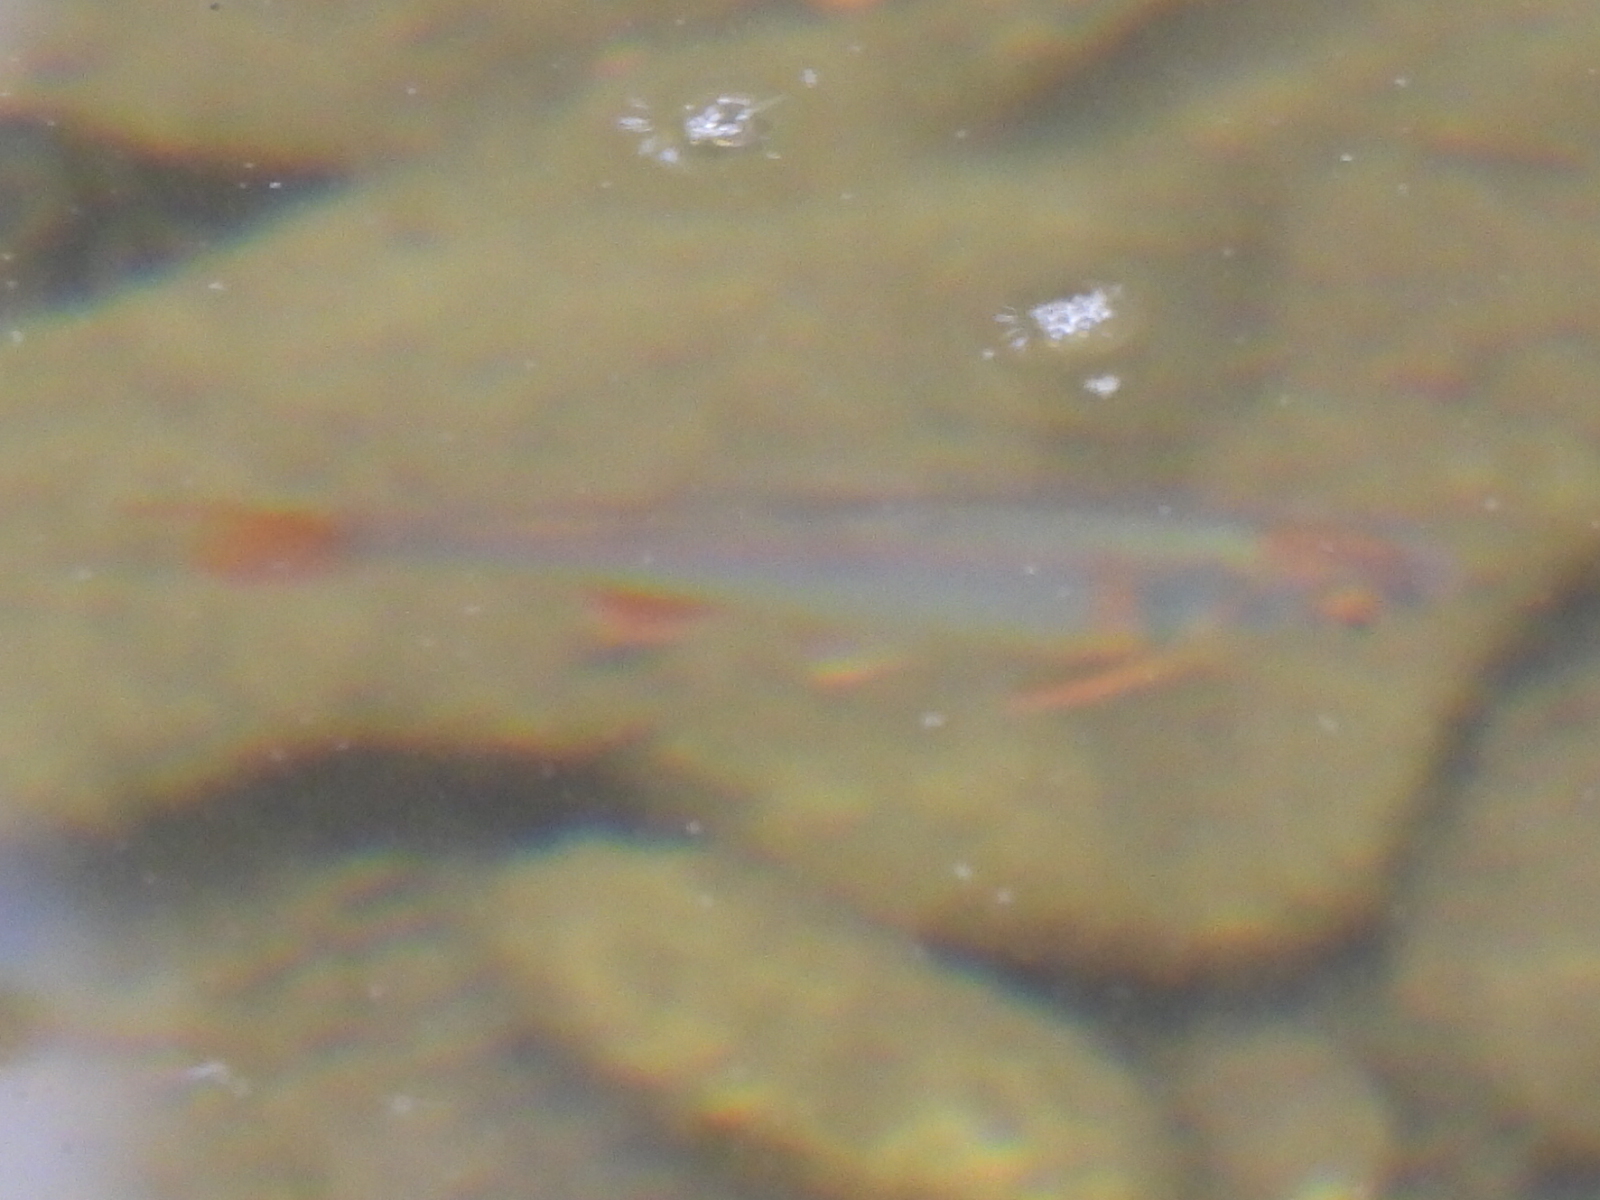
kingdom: Animalia
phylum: Chordata
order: Cypriniformes
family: Cyprinidae
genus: Cyprinella
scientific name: Cyprinella lutrensis
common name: Red shiner
